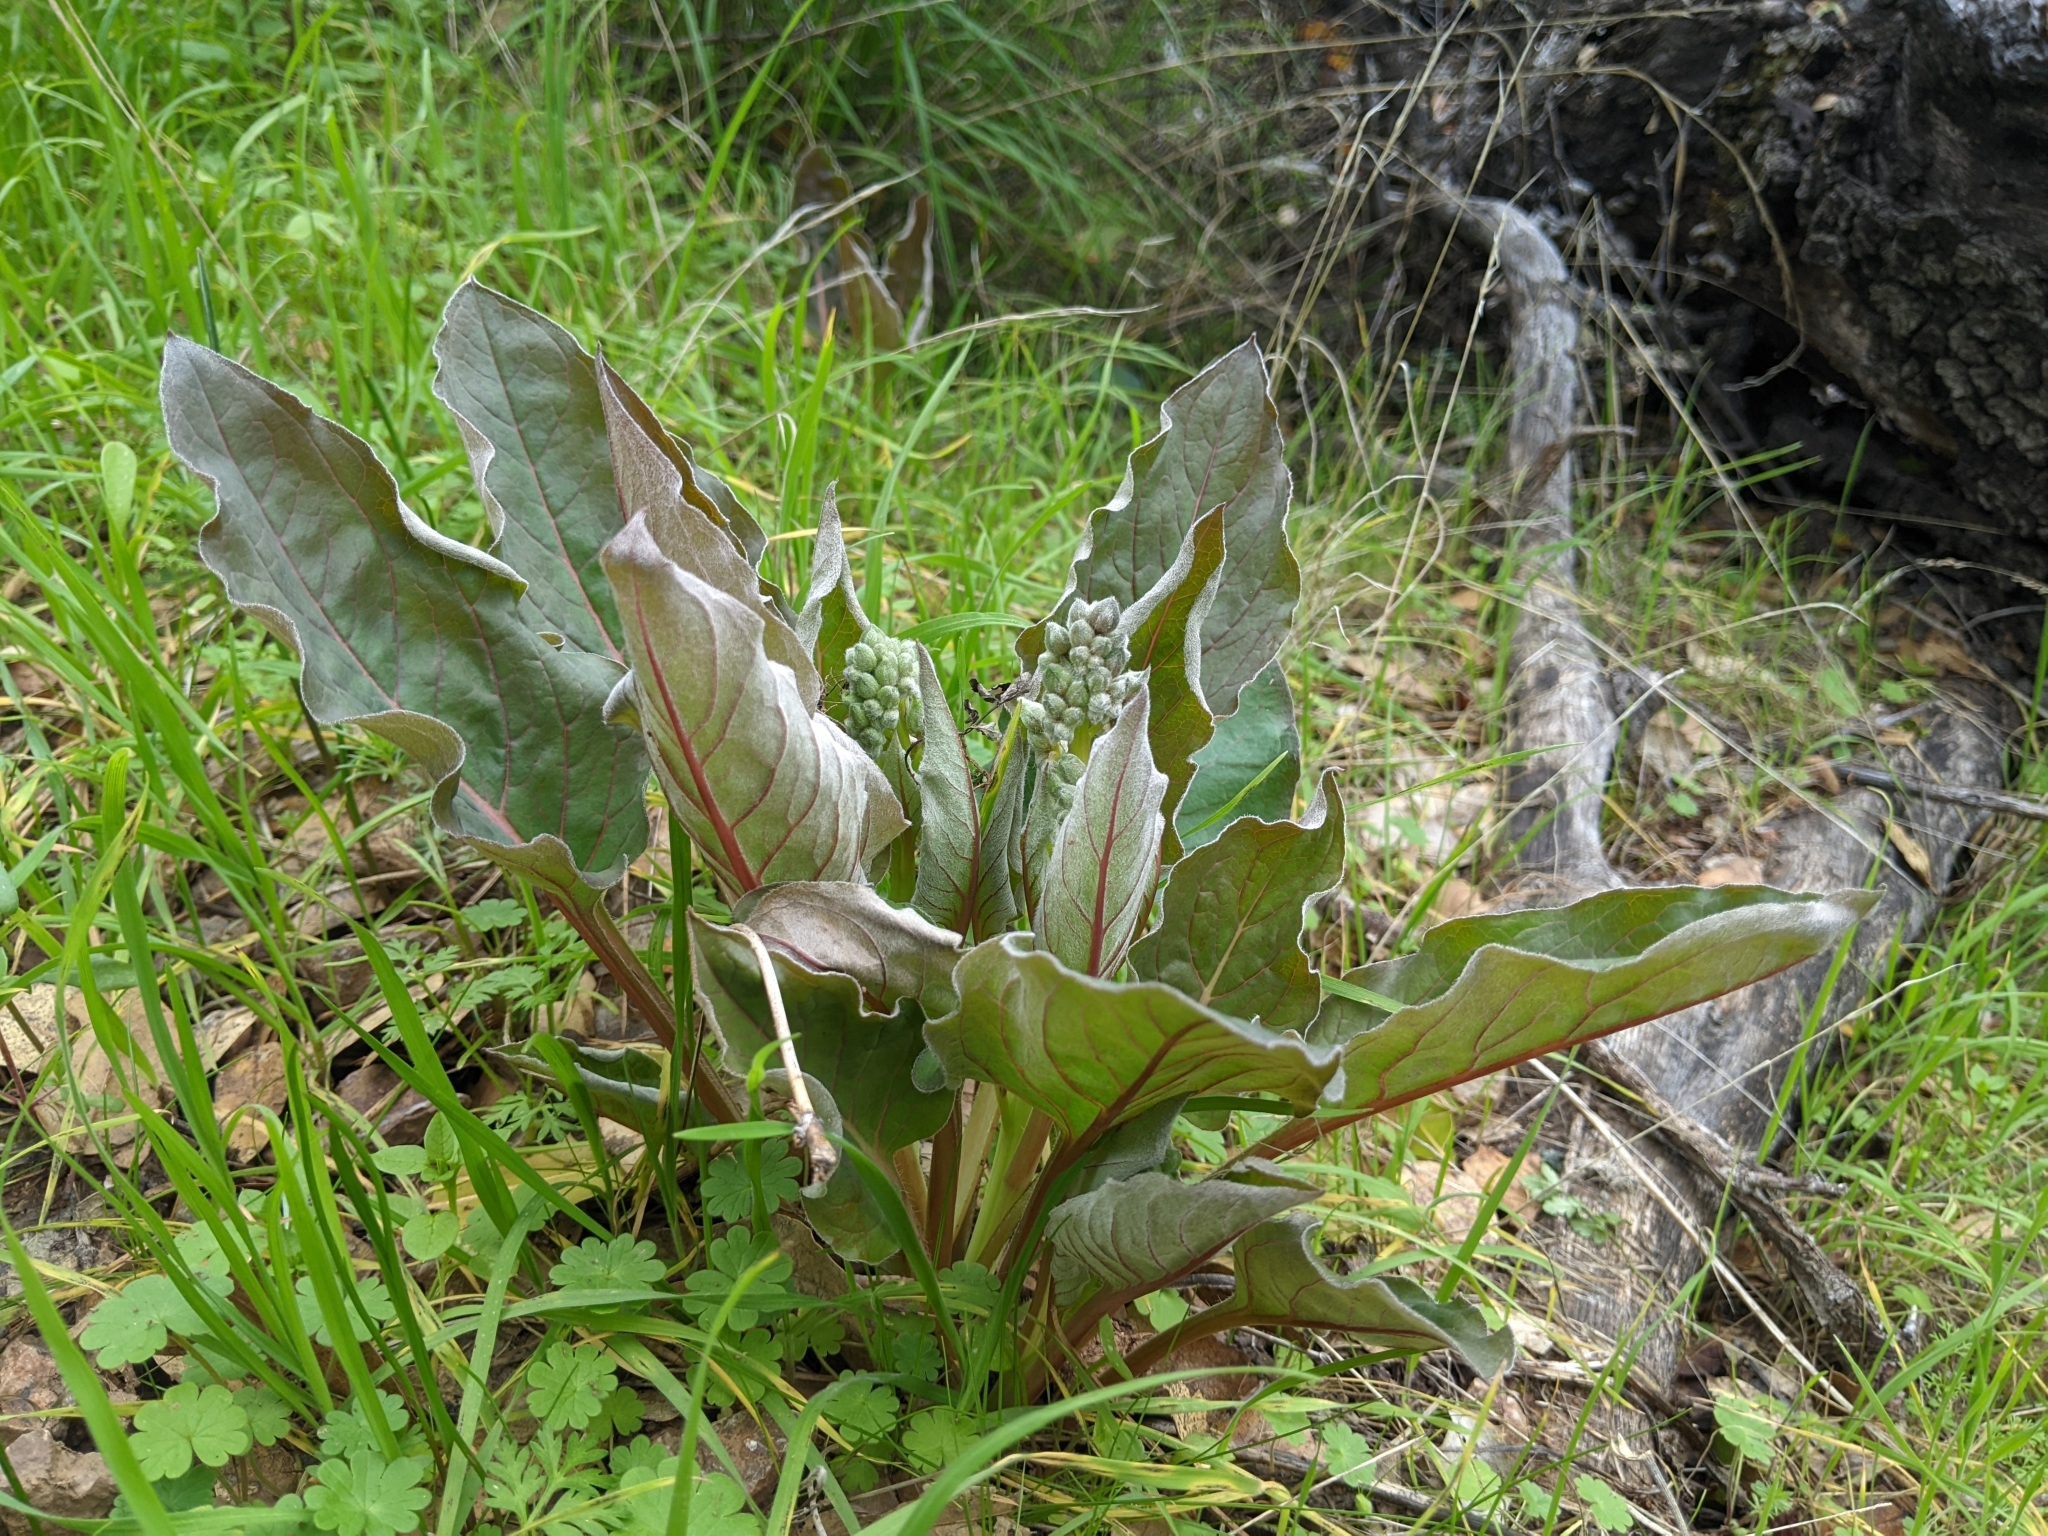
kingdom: Plantae
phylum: Tracheophyta
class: Magnoliopsida
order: Boraginales
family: Boraginaceae
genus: Adelinia
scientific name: Adelinia grande
